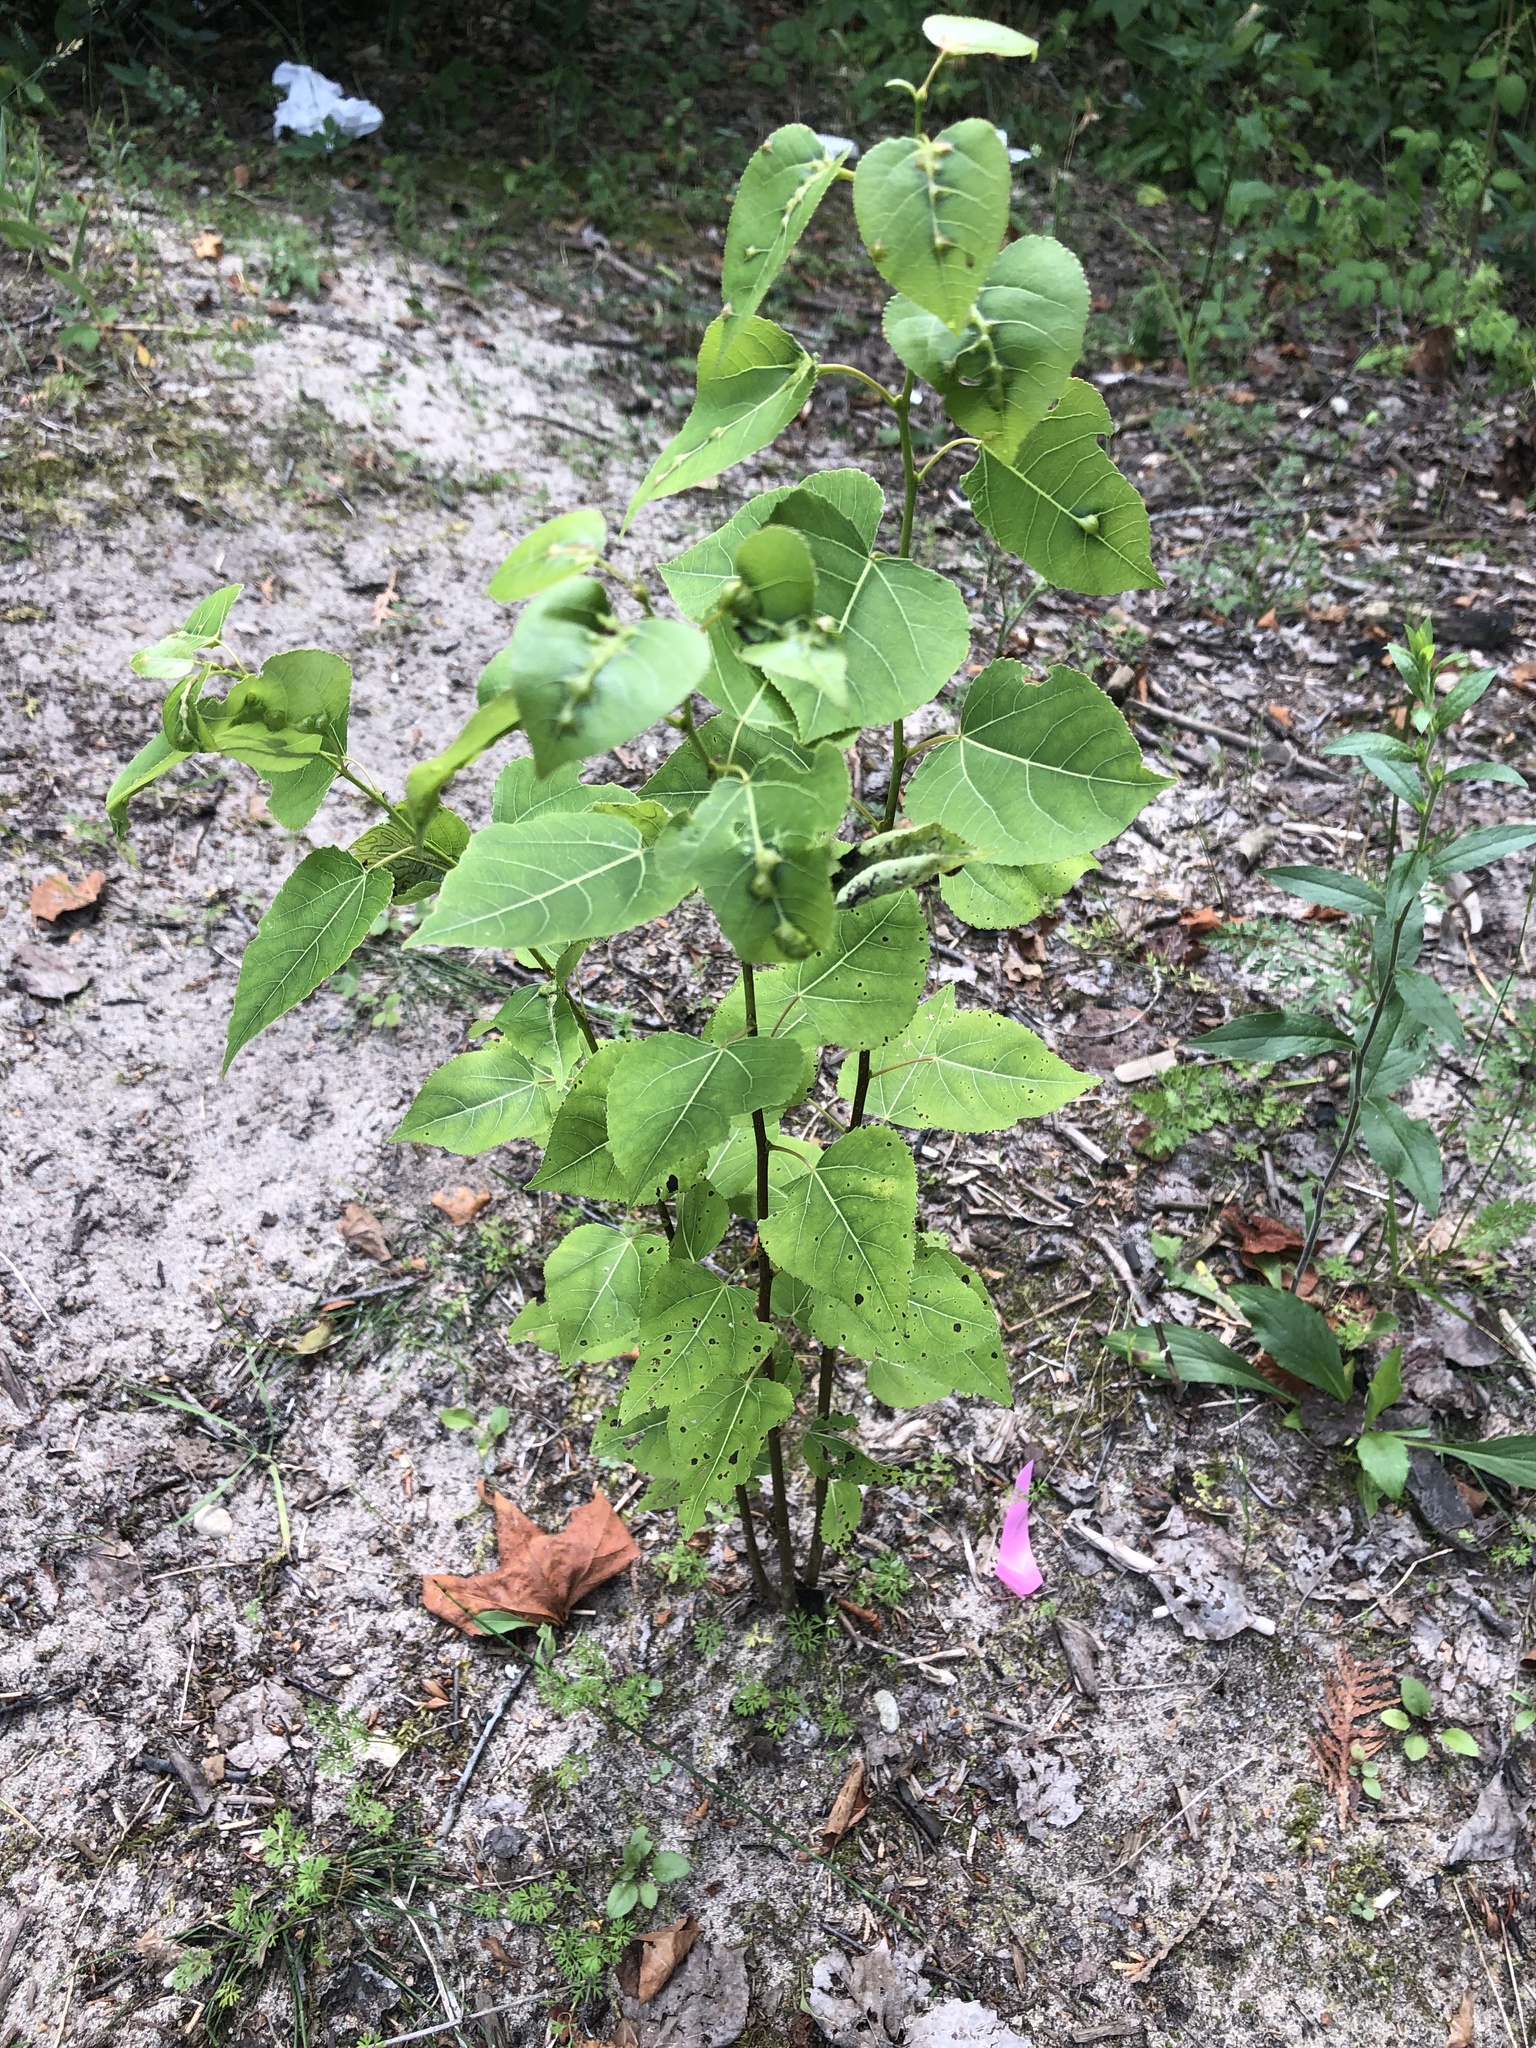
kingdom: Plantae
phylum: Tracheophyta
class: Magnoliopsida
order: Malpighiales
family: Salicaceae
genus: Populus
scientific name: Populus tremuloides
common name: Quaking aspen
